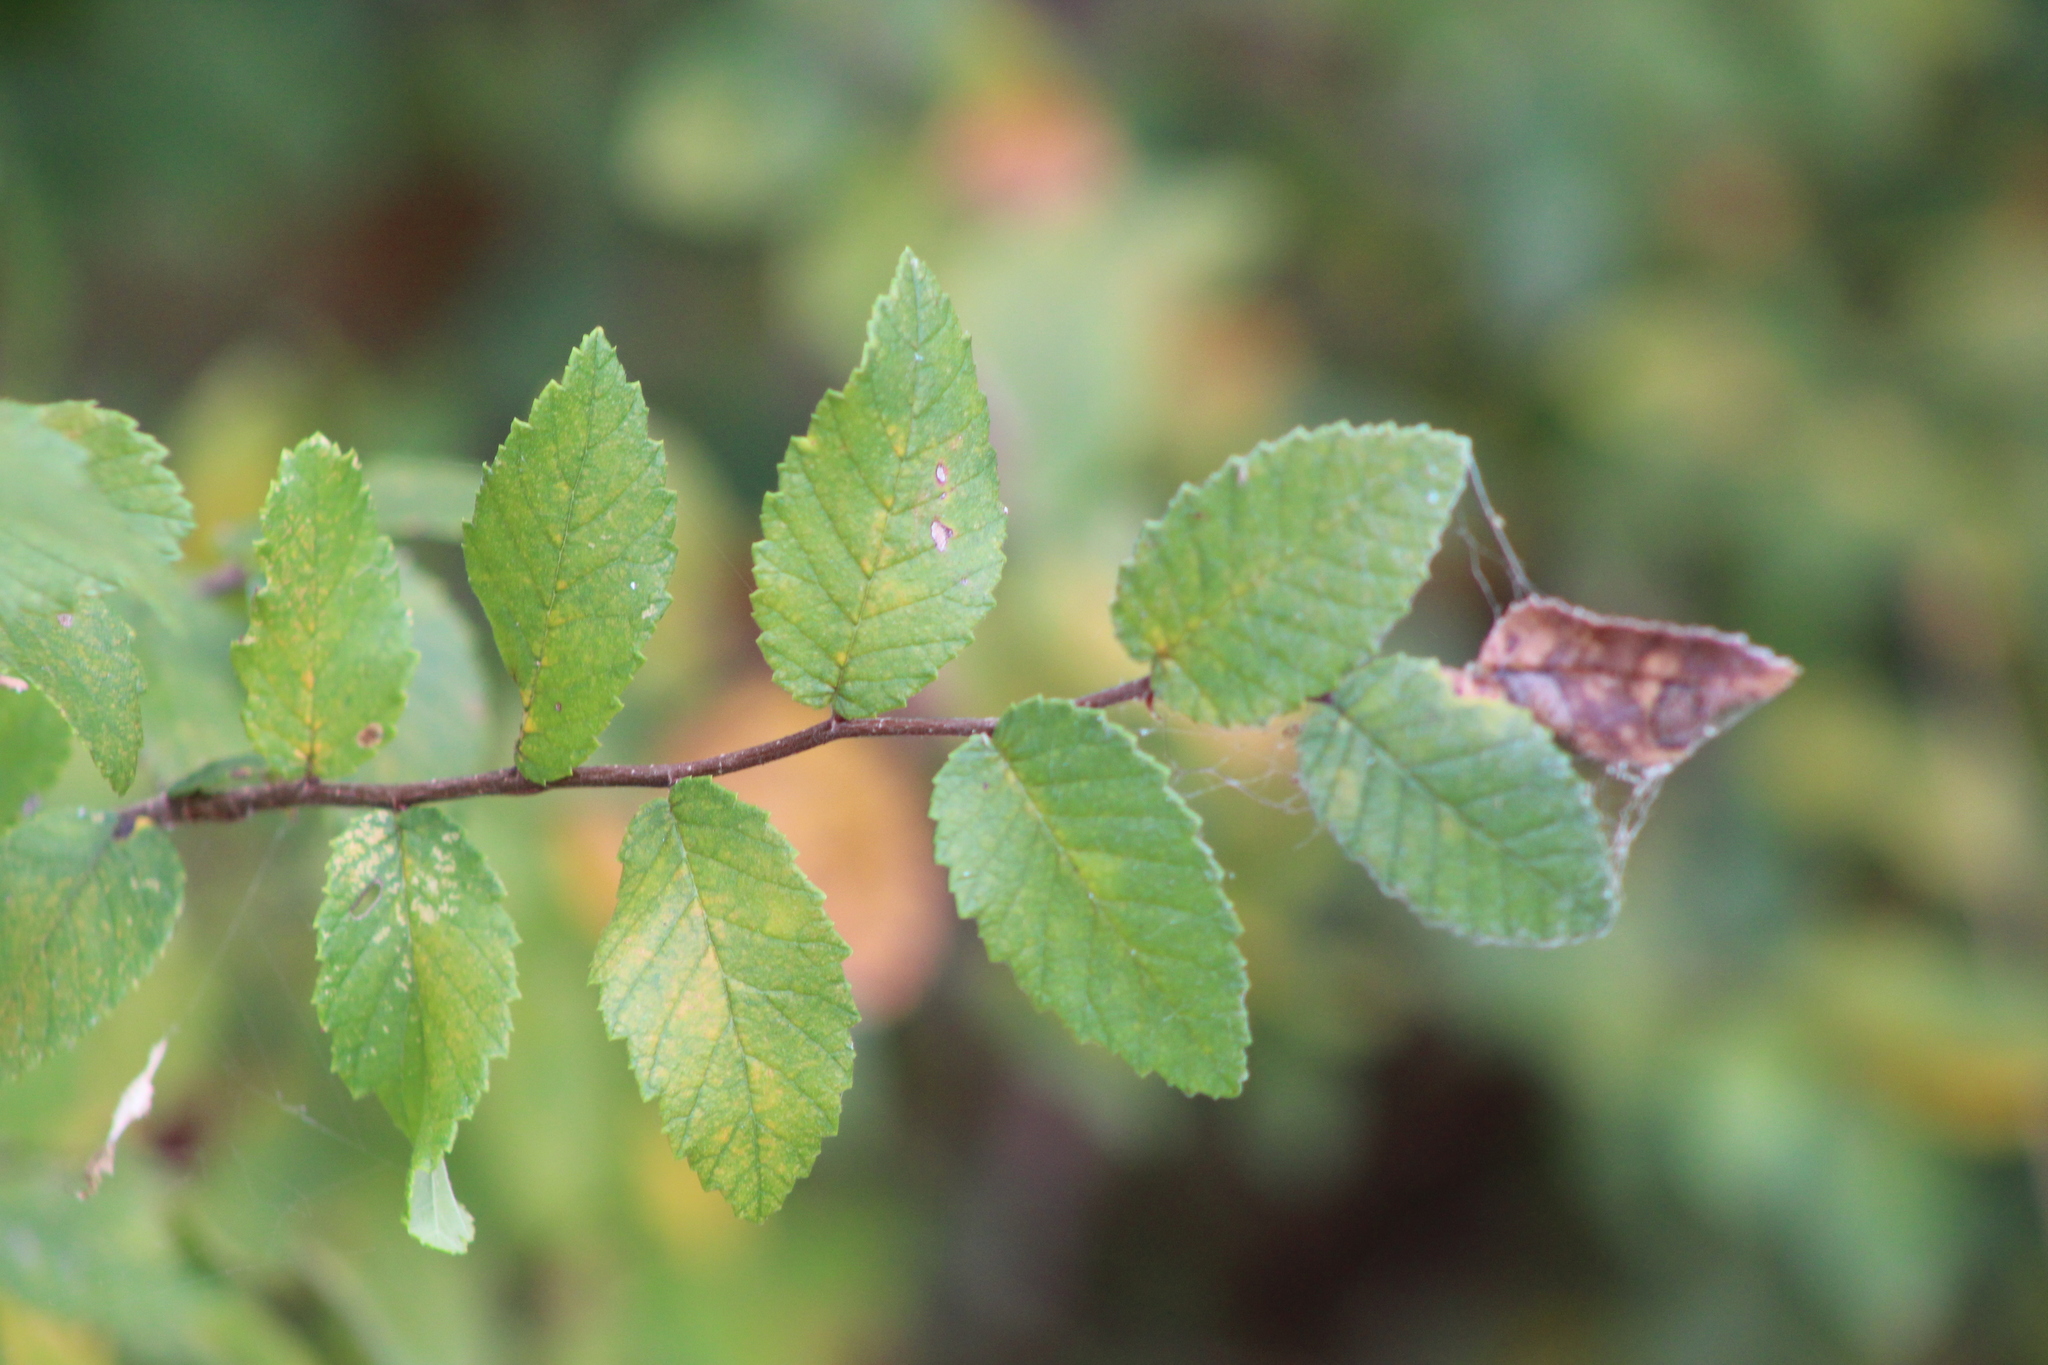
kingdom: Plantae
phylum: Tracheophyta
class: Magnoliopsida
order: Rosales
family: Ulmaceae
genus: Ulmus
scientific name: Ulmus crassifolia
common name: Basket elm
